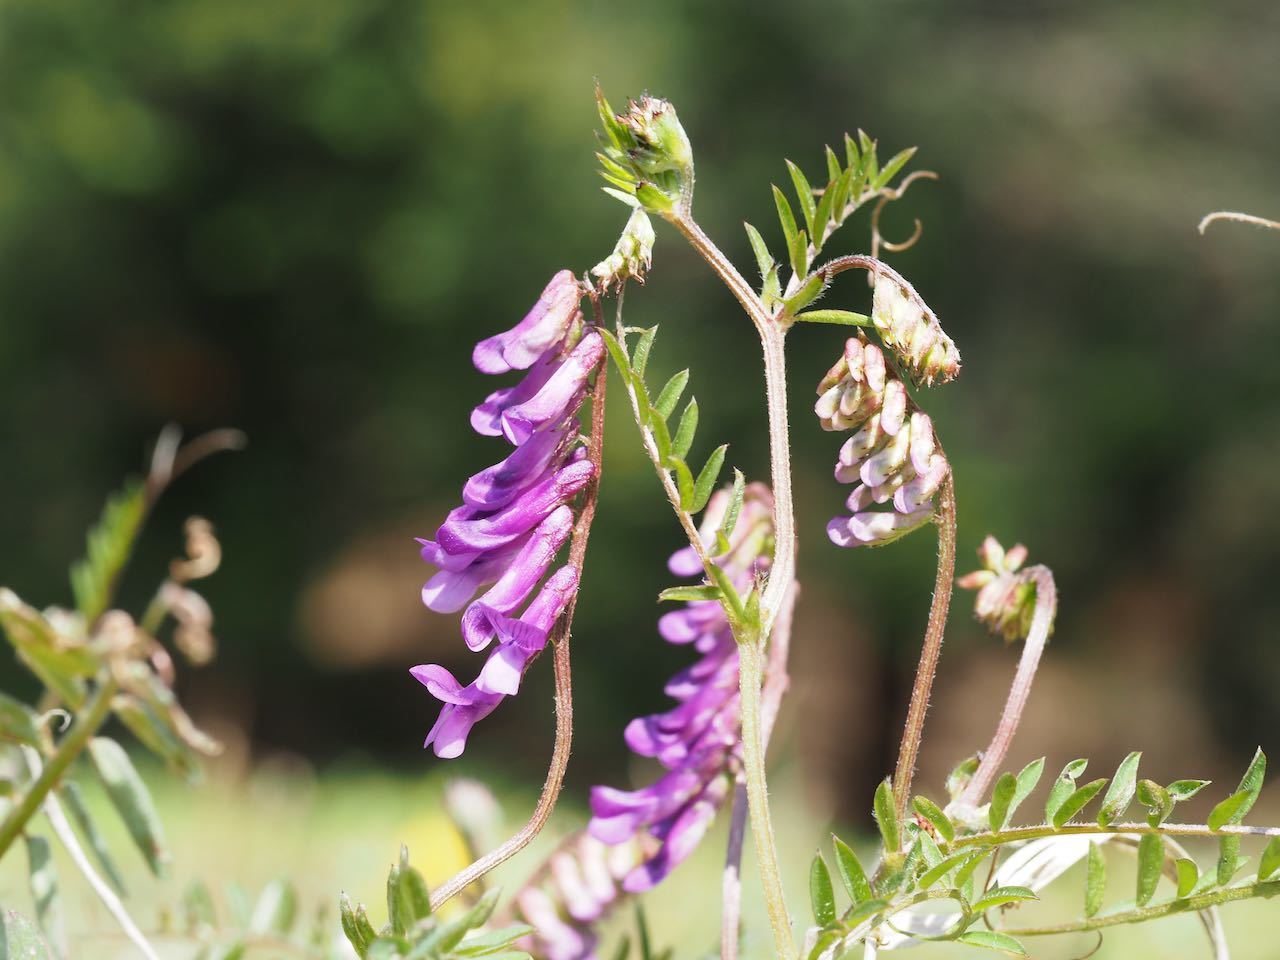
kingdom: Plantae
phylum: Tracheophyta
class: Magnoliopsida
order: Fabales
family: Fabaceae
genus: Vicia
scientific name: Vicia villosa
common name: Fodder vetch
